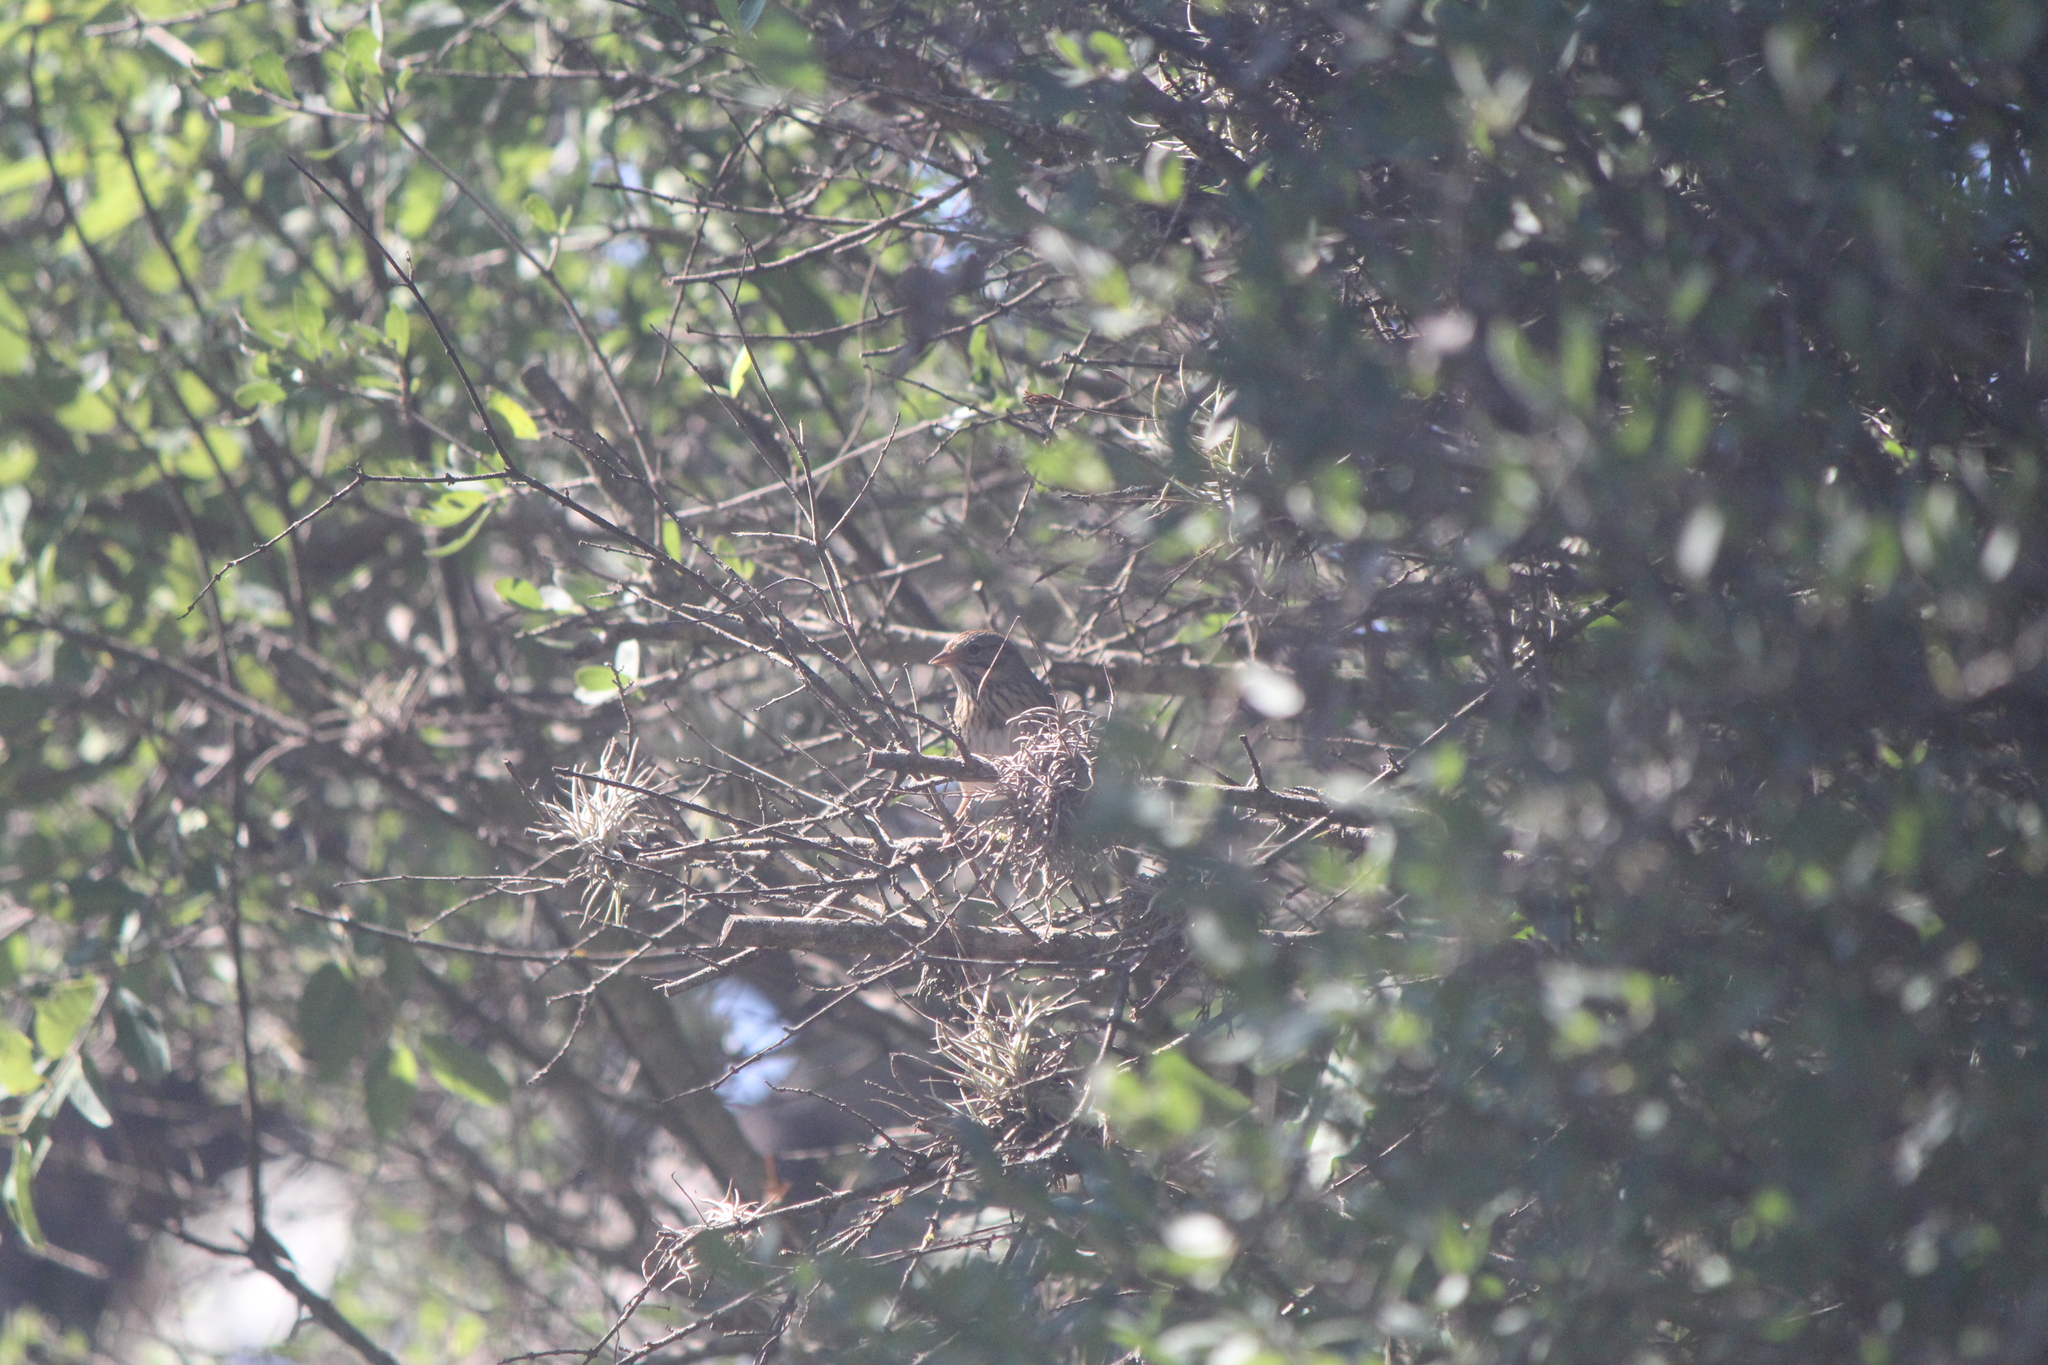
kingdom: Animalia
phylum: Chordata
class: Aves
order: Passeriformes
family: Passerellidae
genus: Melospiza
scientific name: Melospiza lincolnii
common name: Lincoln's sparrow
